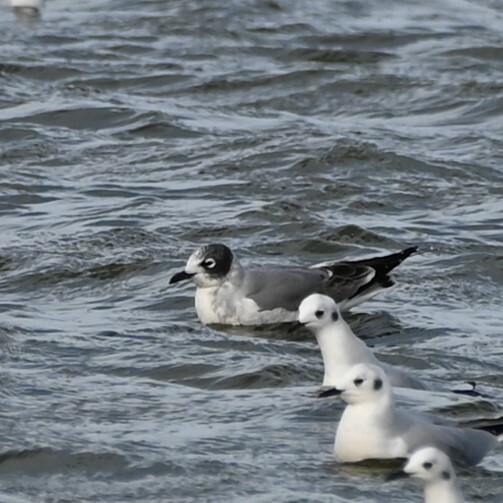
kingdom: Animalia
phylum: Chordata
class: Aves
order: Charadriiformes
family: Laridae
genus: Leucophaeus
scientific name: Leucophaeus pipixcan
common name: Franklin's gull
